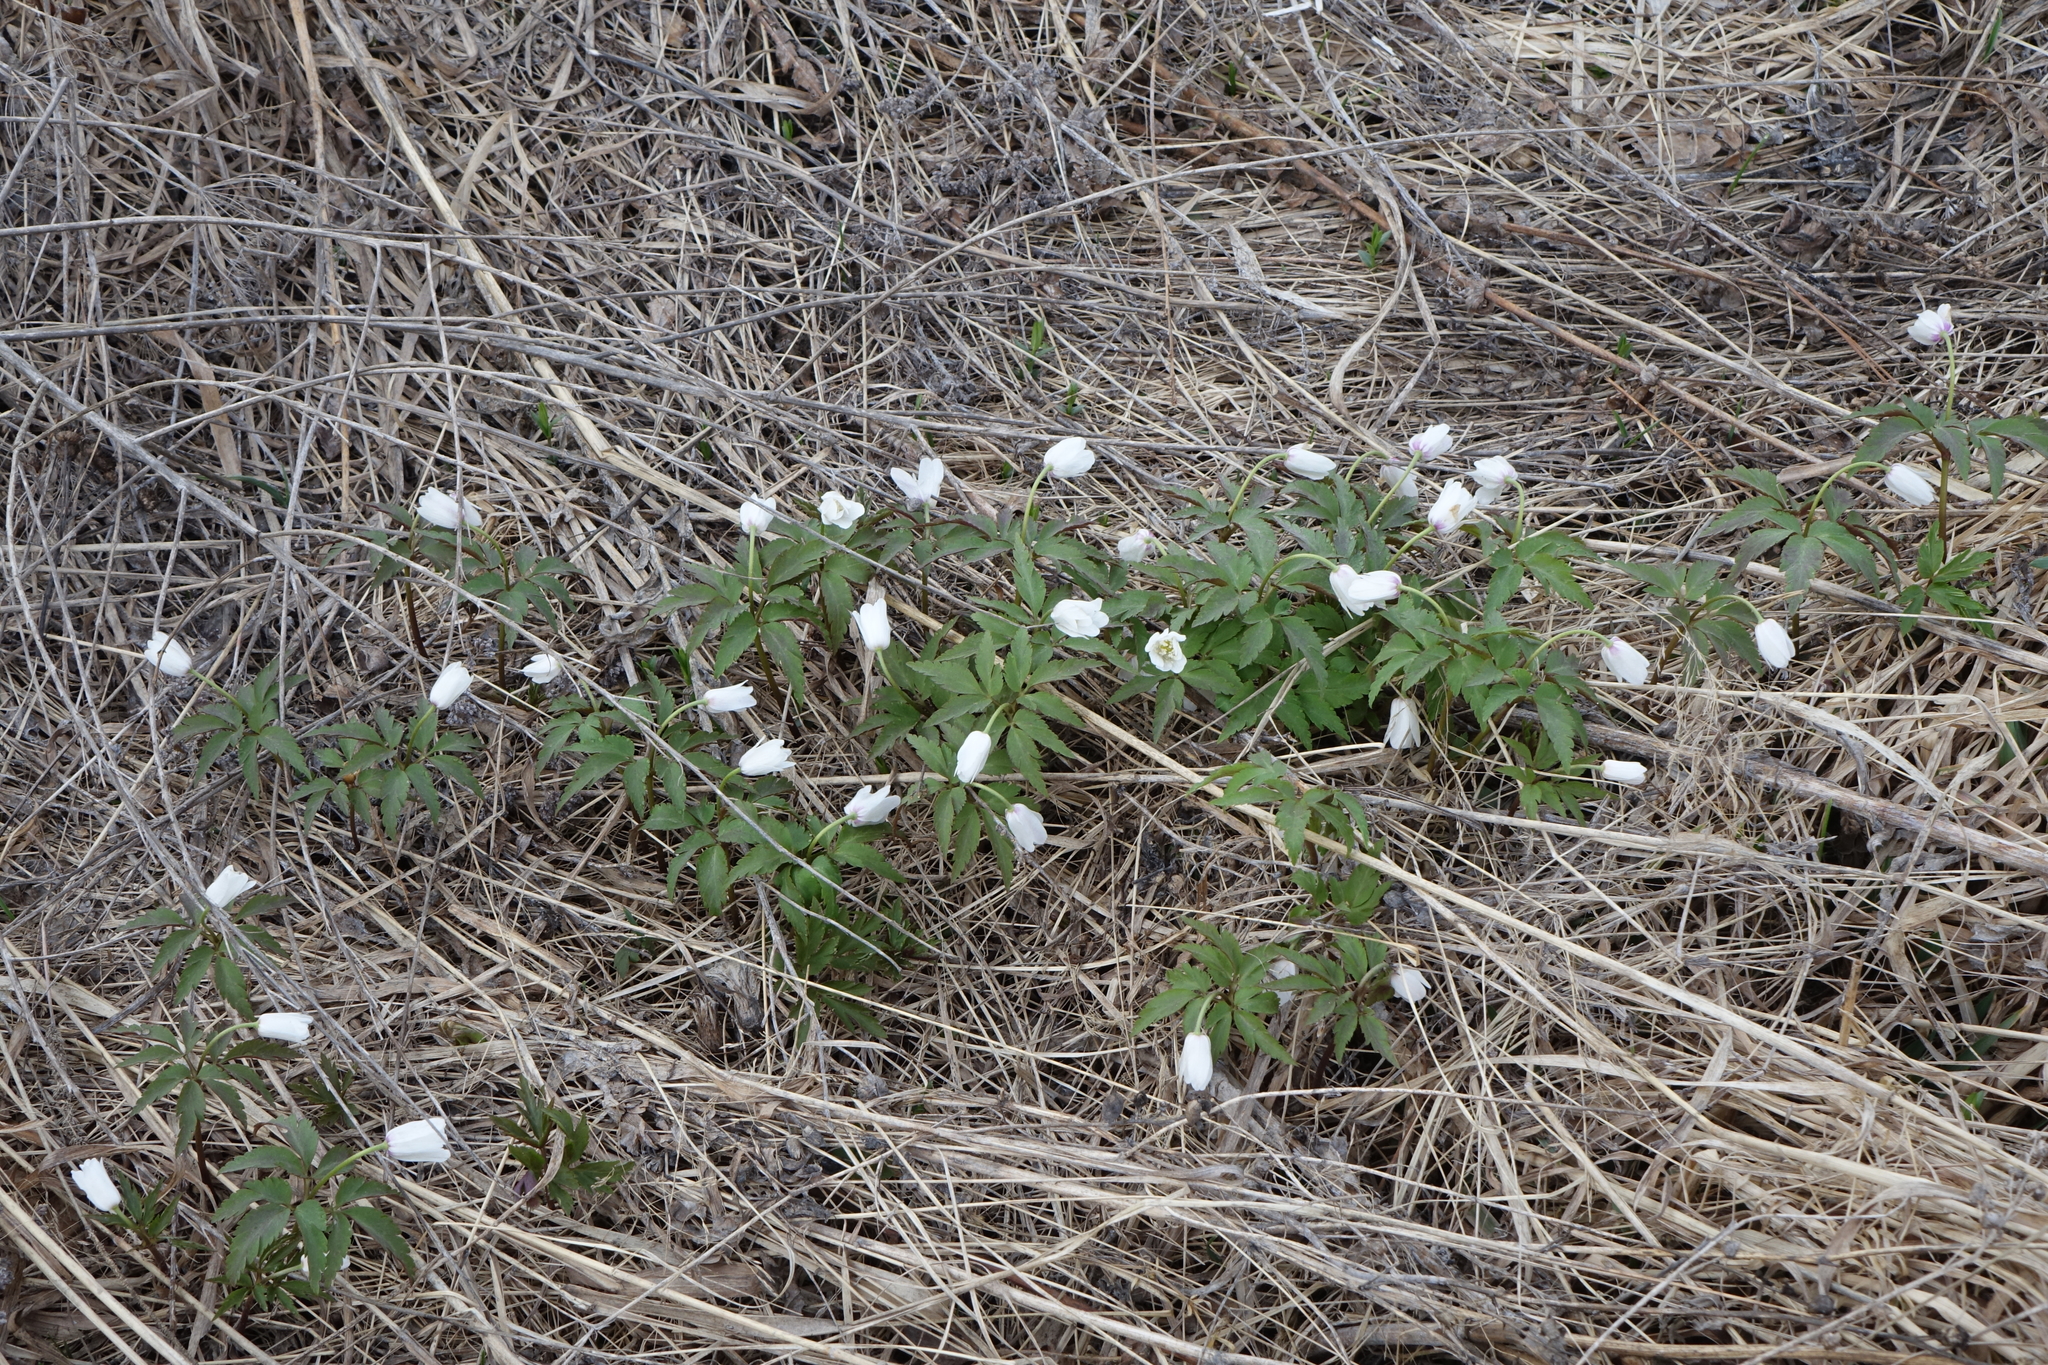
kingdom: Plantae
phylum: Tracheophyta
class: Magnoliopsida
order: Ranunculales
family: Ranunculaceae
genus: Anemone
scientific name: Anemone altaica
